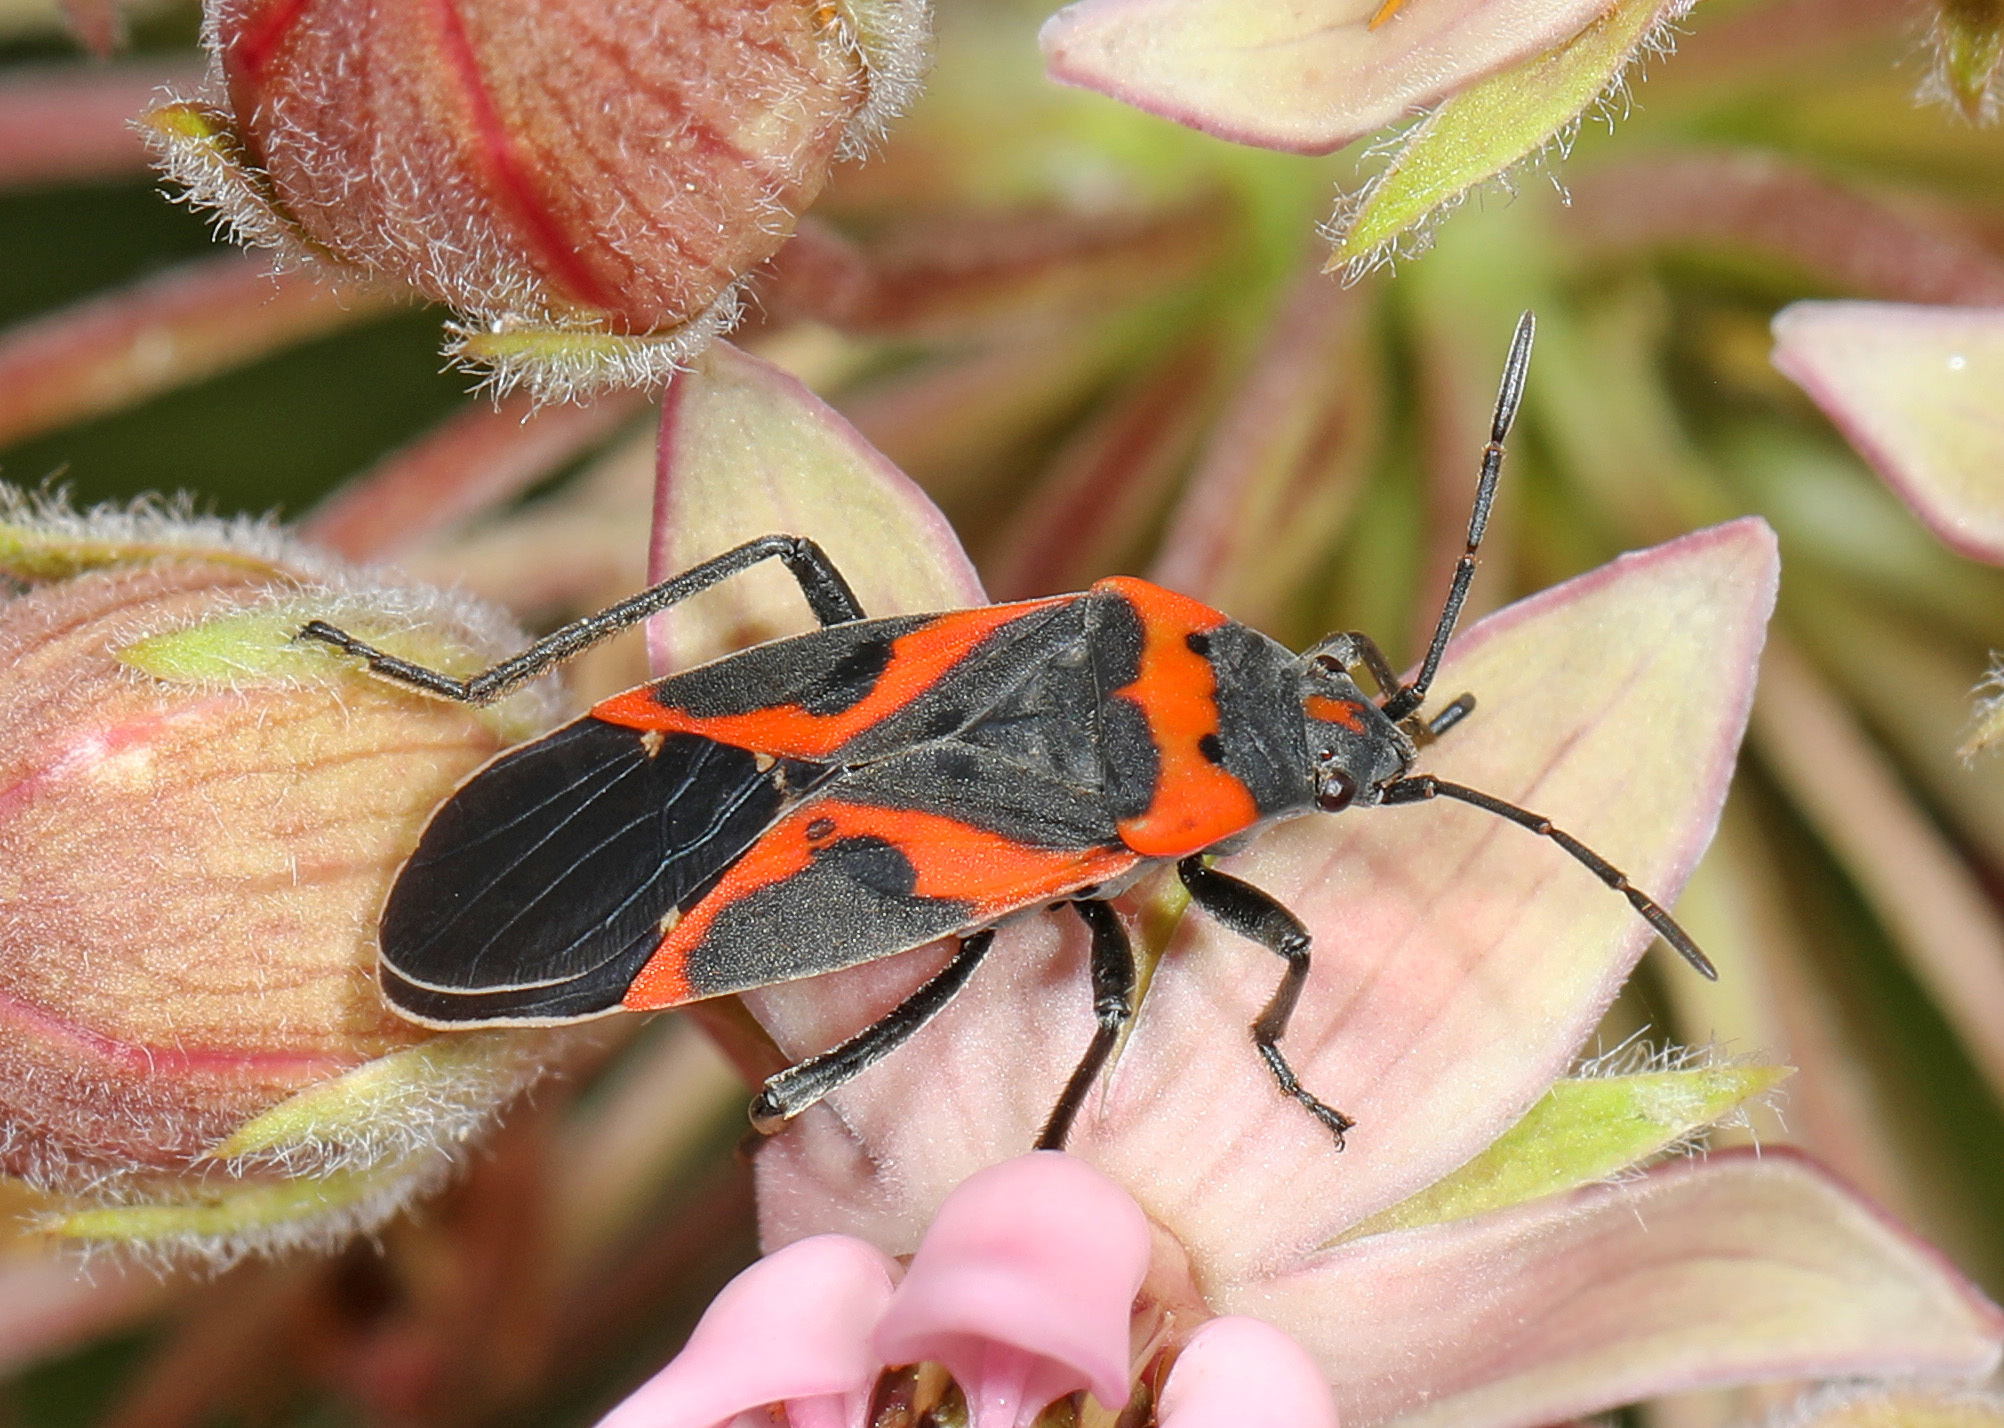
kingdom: Animalia
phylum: Arthropoda
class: Insecta
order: Hemiptera
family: Lygaeidae
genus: Lygaeus
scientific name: Lygaeus kalmii
